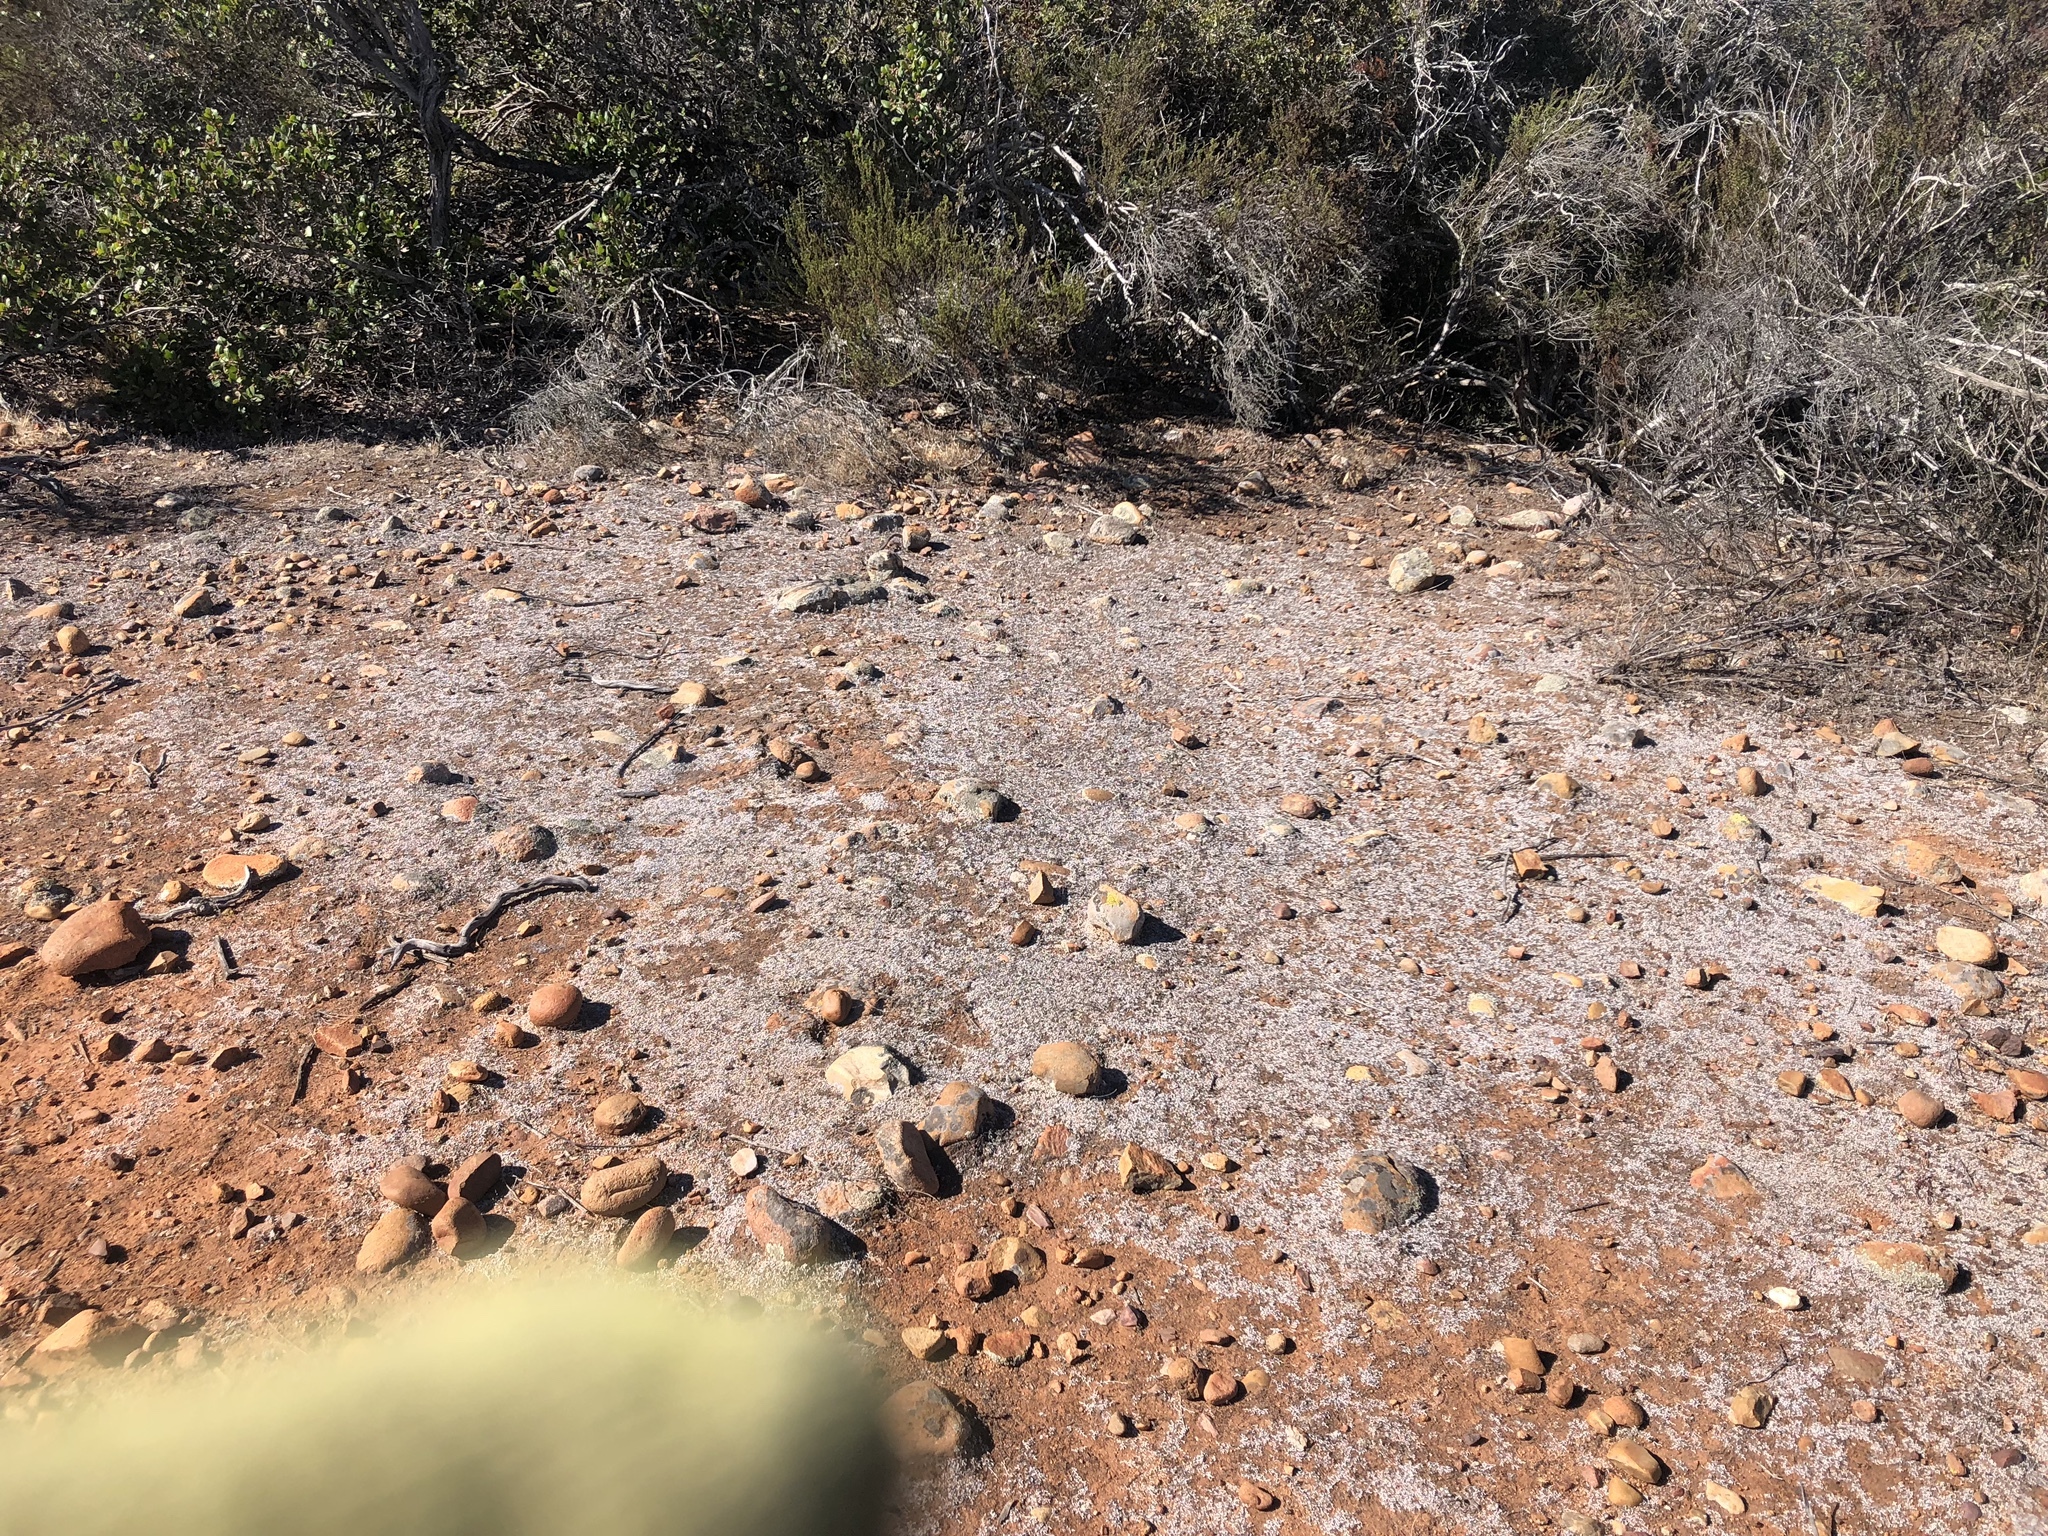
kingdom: Plantae
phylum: Tracheophyta
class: Lycopodiopsida
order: Selaginellales
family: Selaginellaceae
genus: Selaginella
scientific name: Selaginella cinerascens
